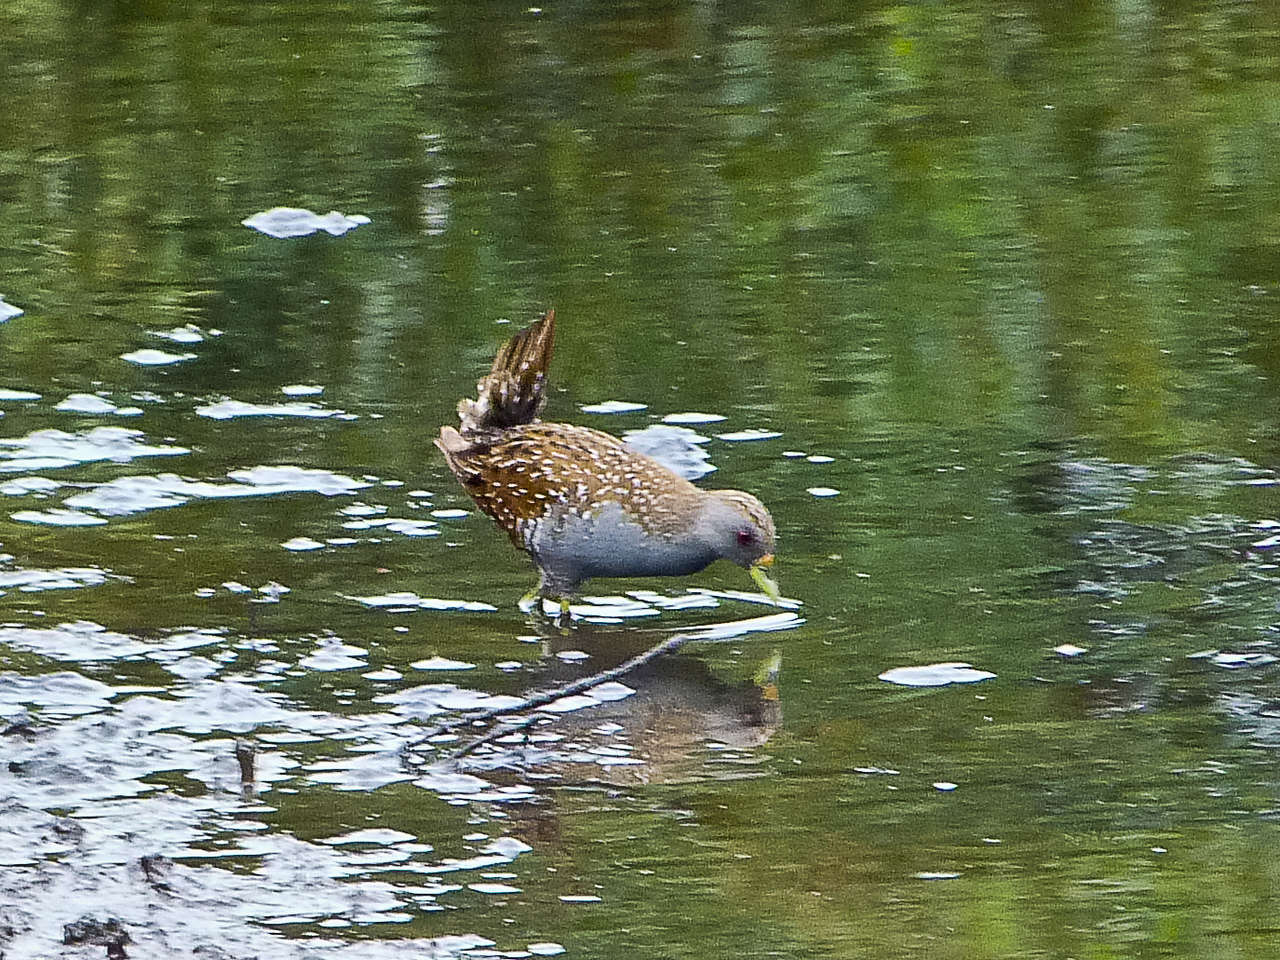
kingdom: Animalia
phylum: Chordata
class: Aves
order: Gruiformes
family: Rallidae
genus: Porzana
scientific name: Porzana fluminea
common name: Australian crake
